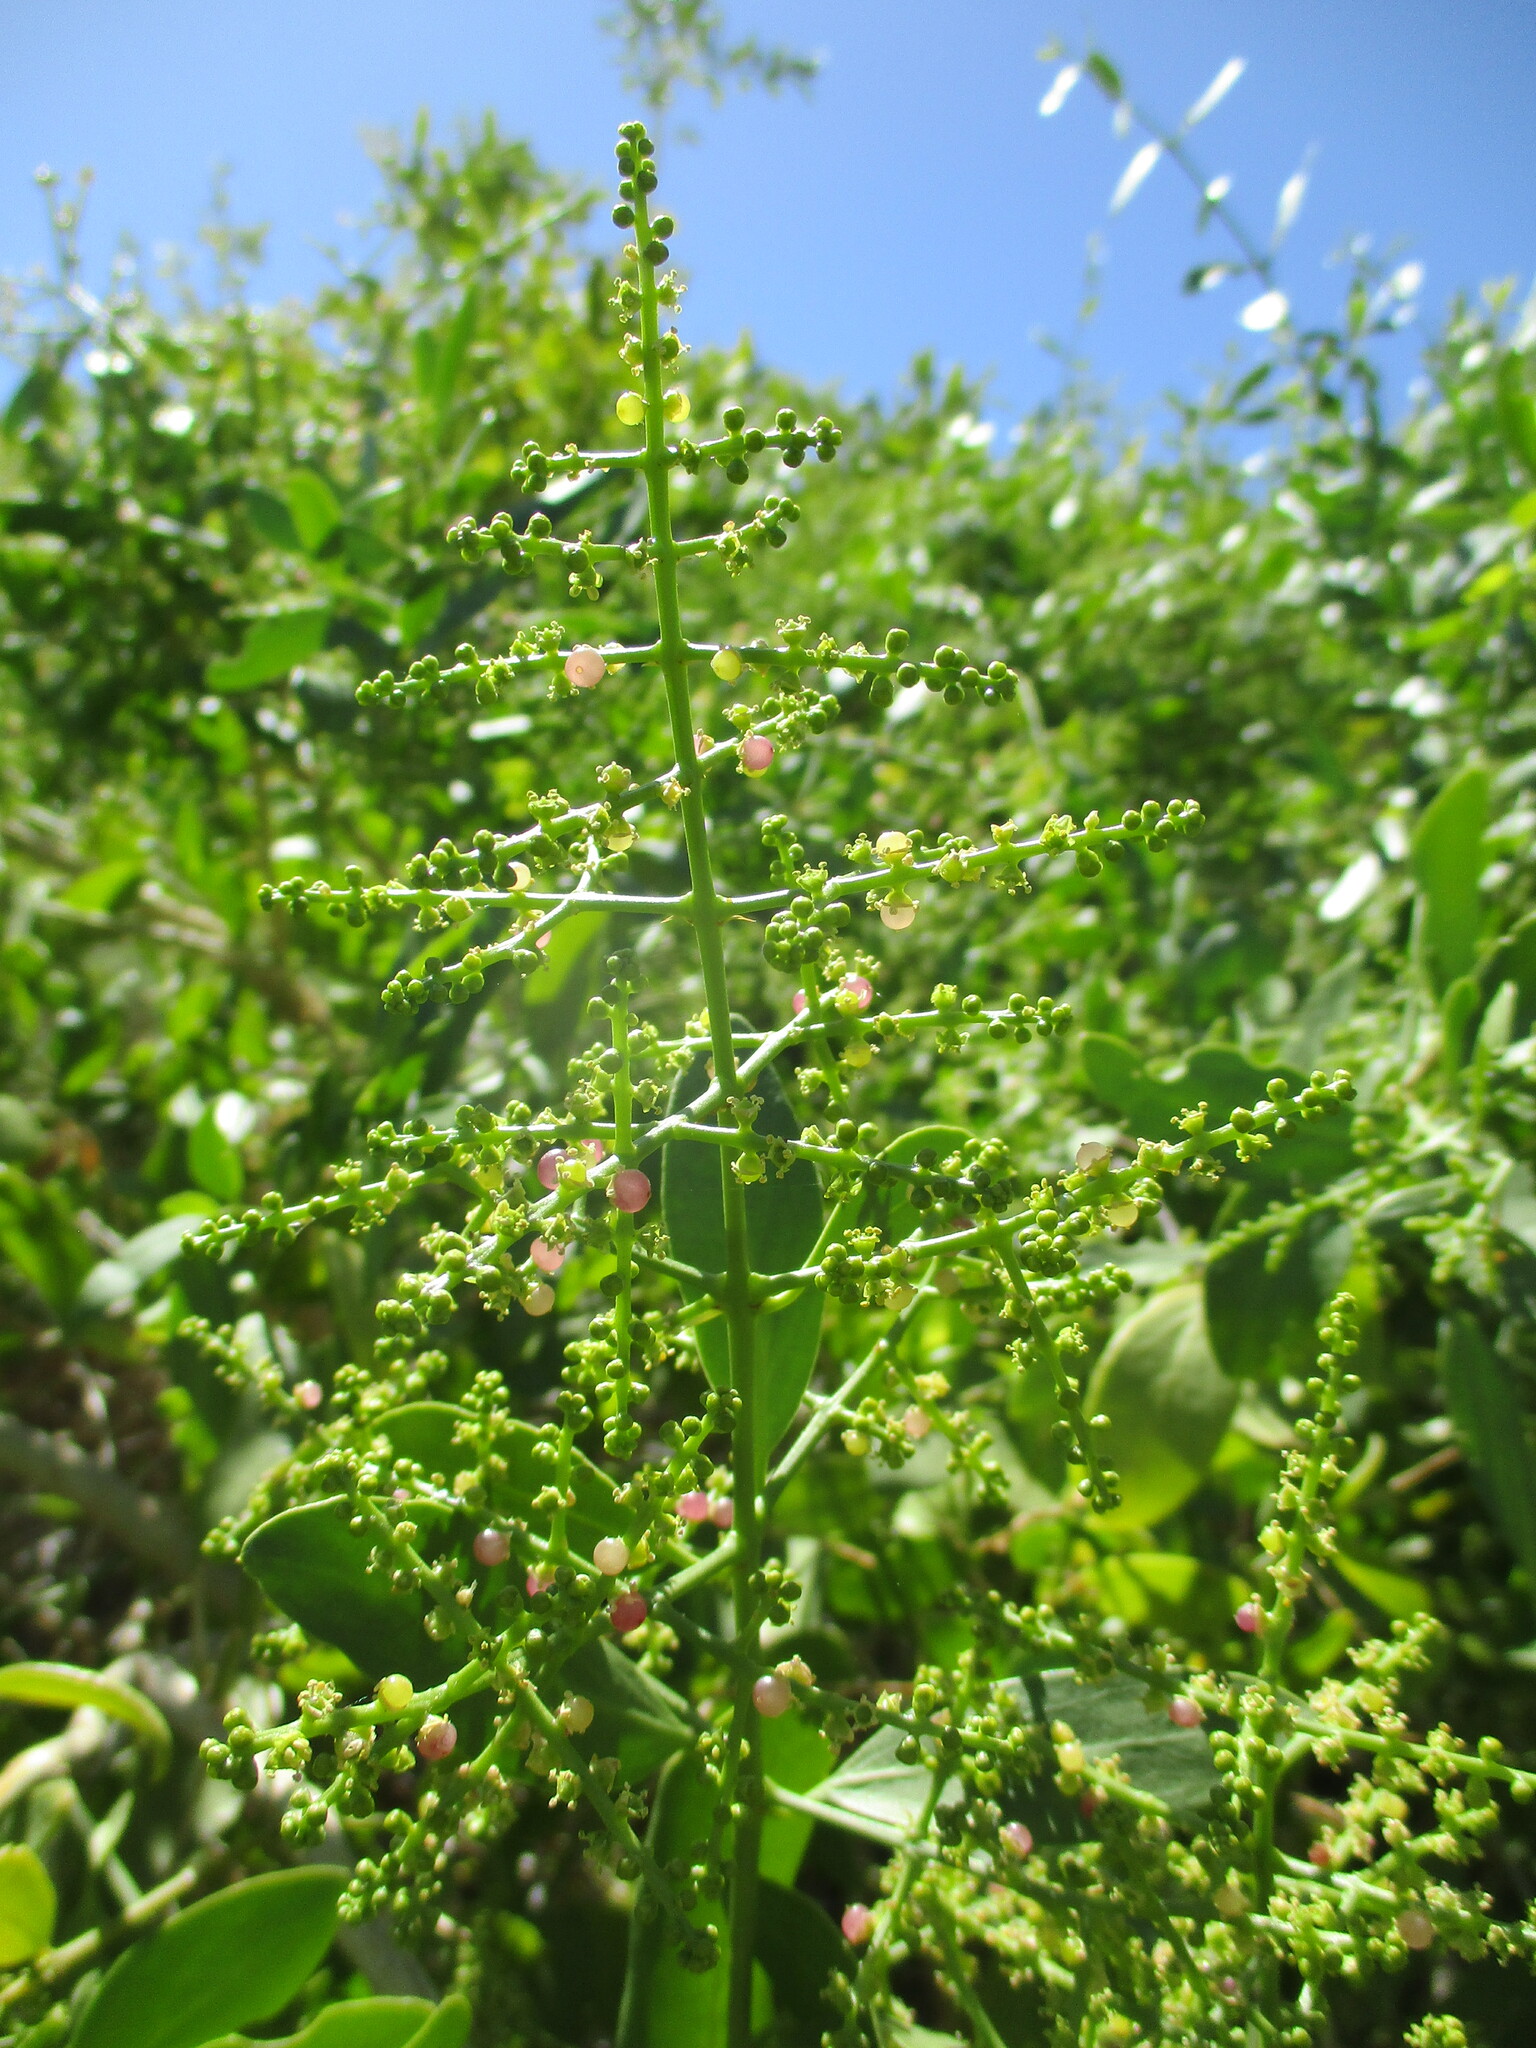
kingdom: Plantae
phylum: Tracheophyta
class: Magnoliopsida
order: Brassicales
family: Salvadoraceae
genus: Salvadora
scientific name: Salvadora persica
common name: Toothbrushtree
